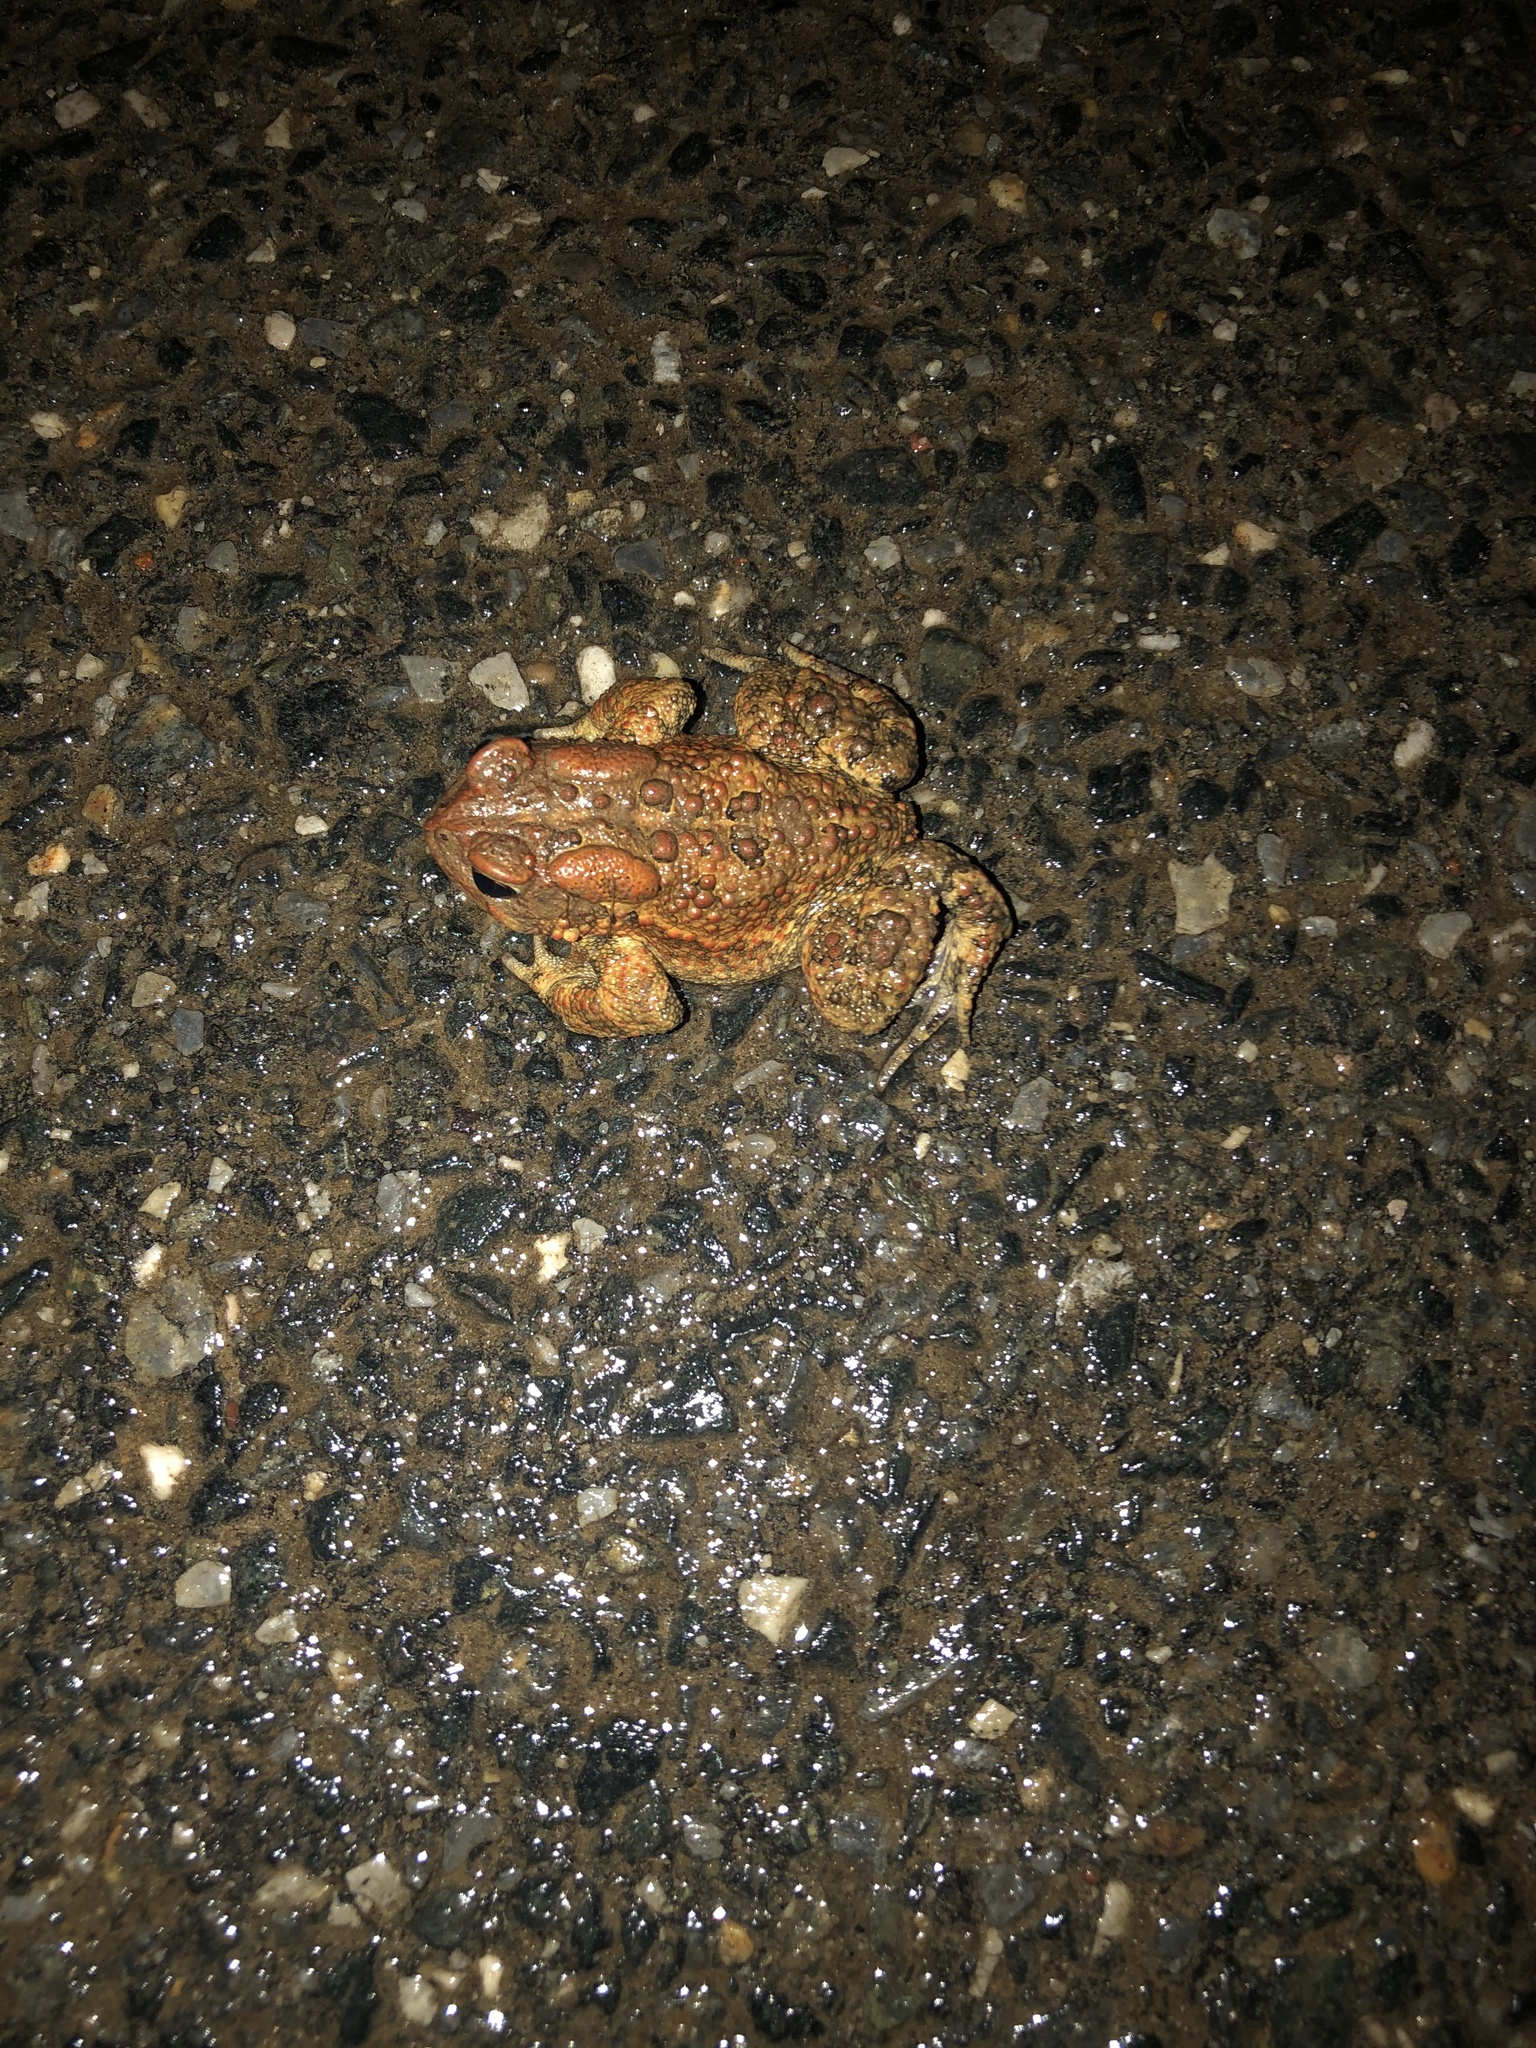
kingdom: Animalia
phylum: Chordata
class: Amphibia
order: Anura
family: Bufonidae
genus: Anaxyrus
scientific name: Anaxyrus americanus
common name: American toad
